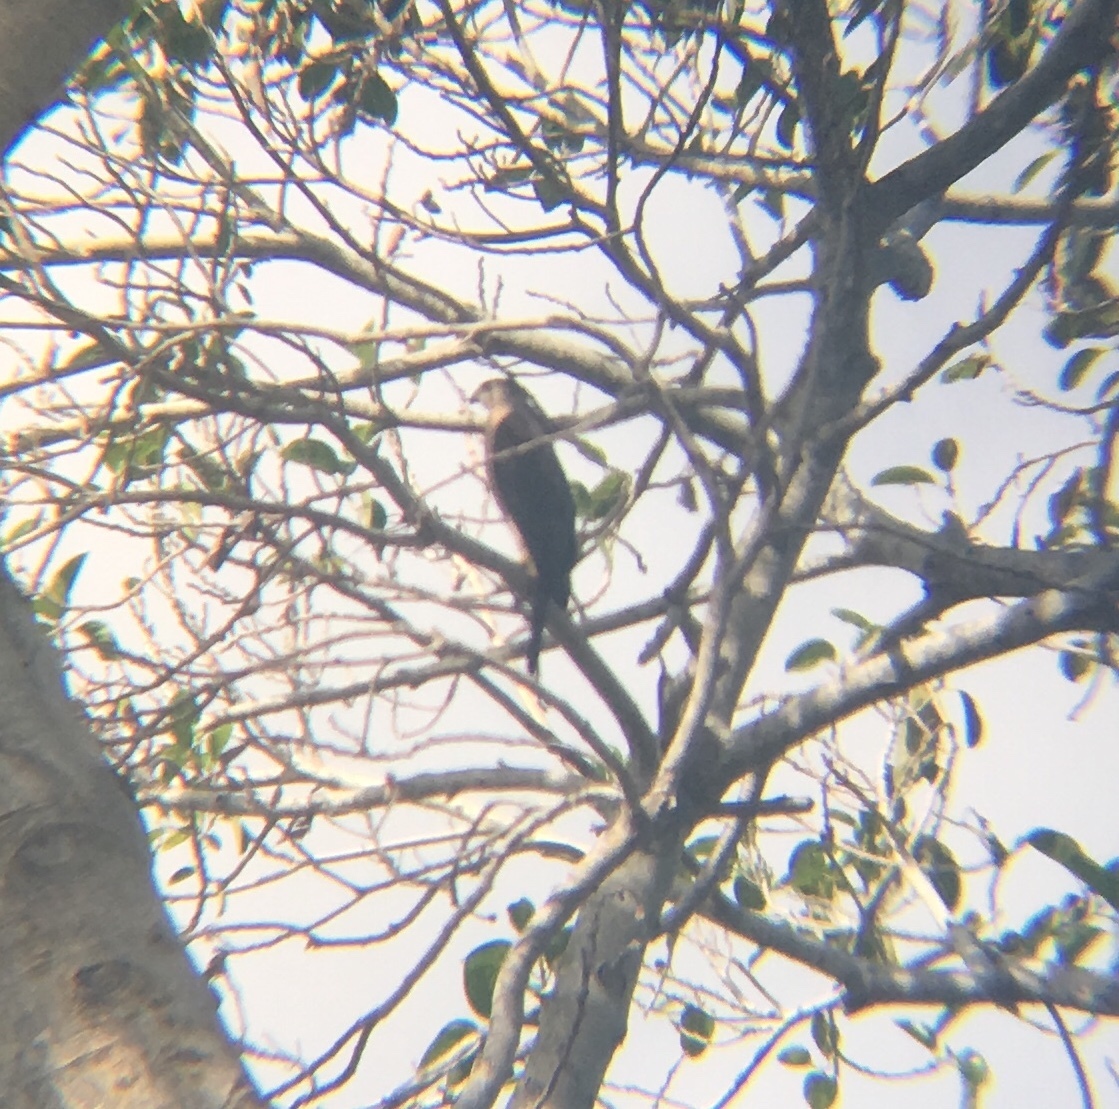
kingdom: Animalia
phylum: Chordata
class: Aves
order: Accipitriformes
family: Accipitridae
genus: Accipiter
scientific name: Accipiter cooperii
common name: Cooper's hawk
